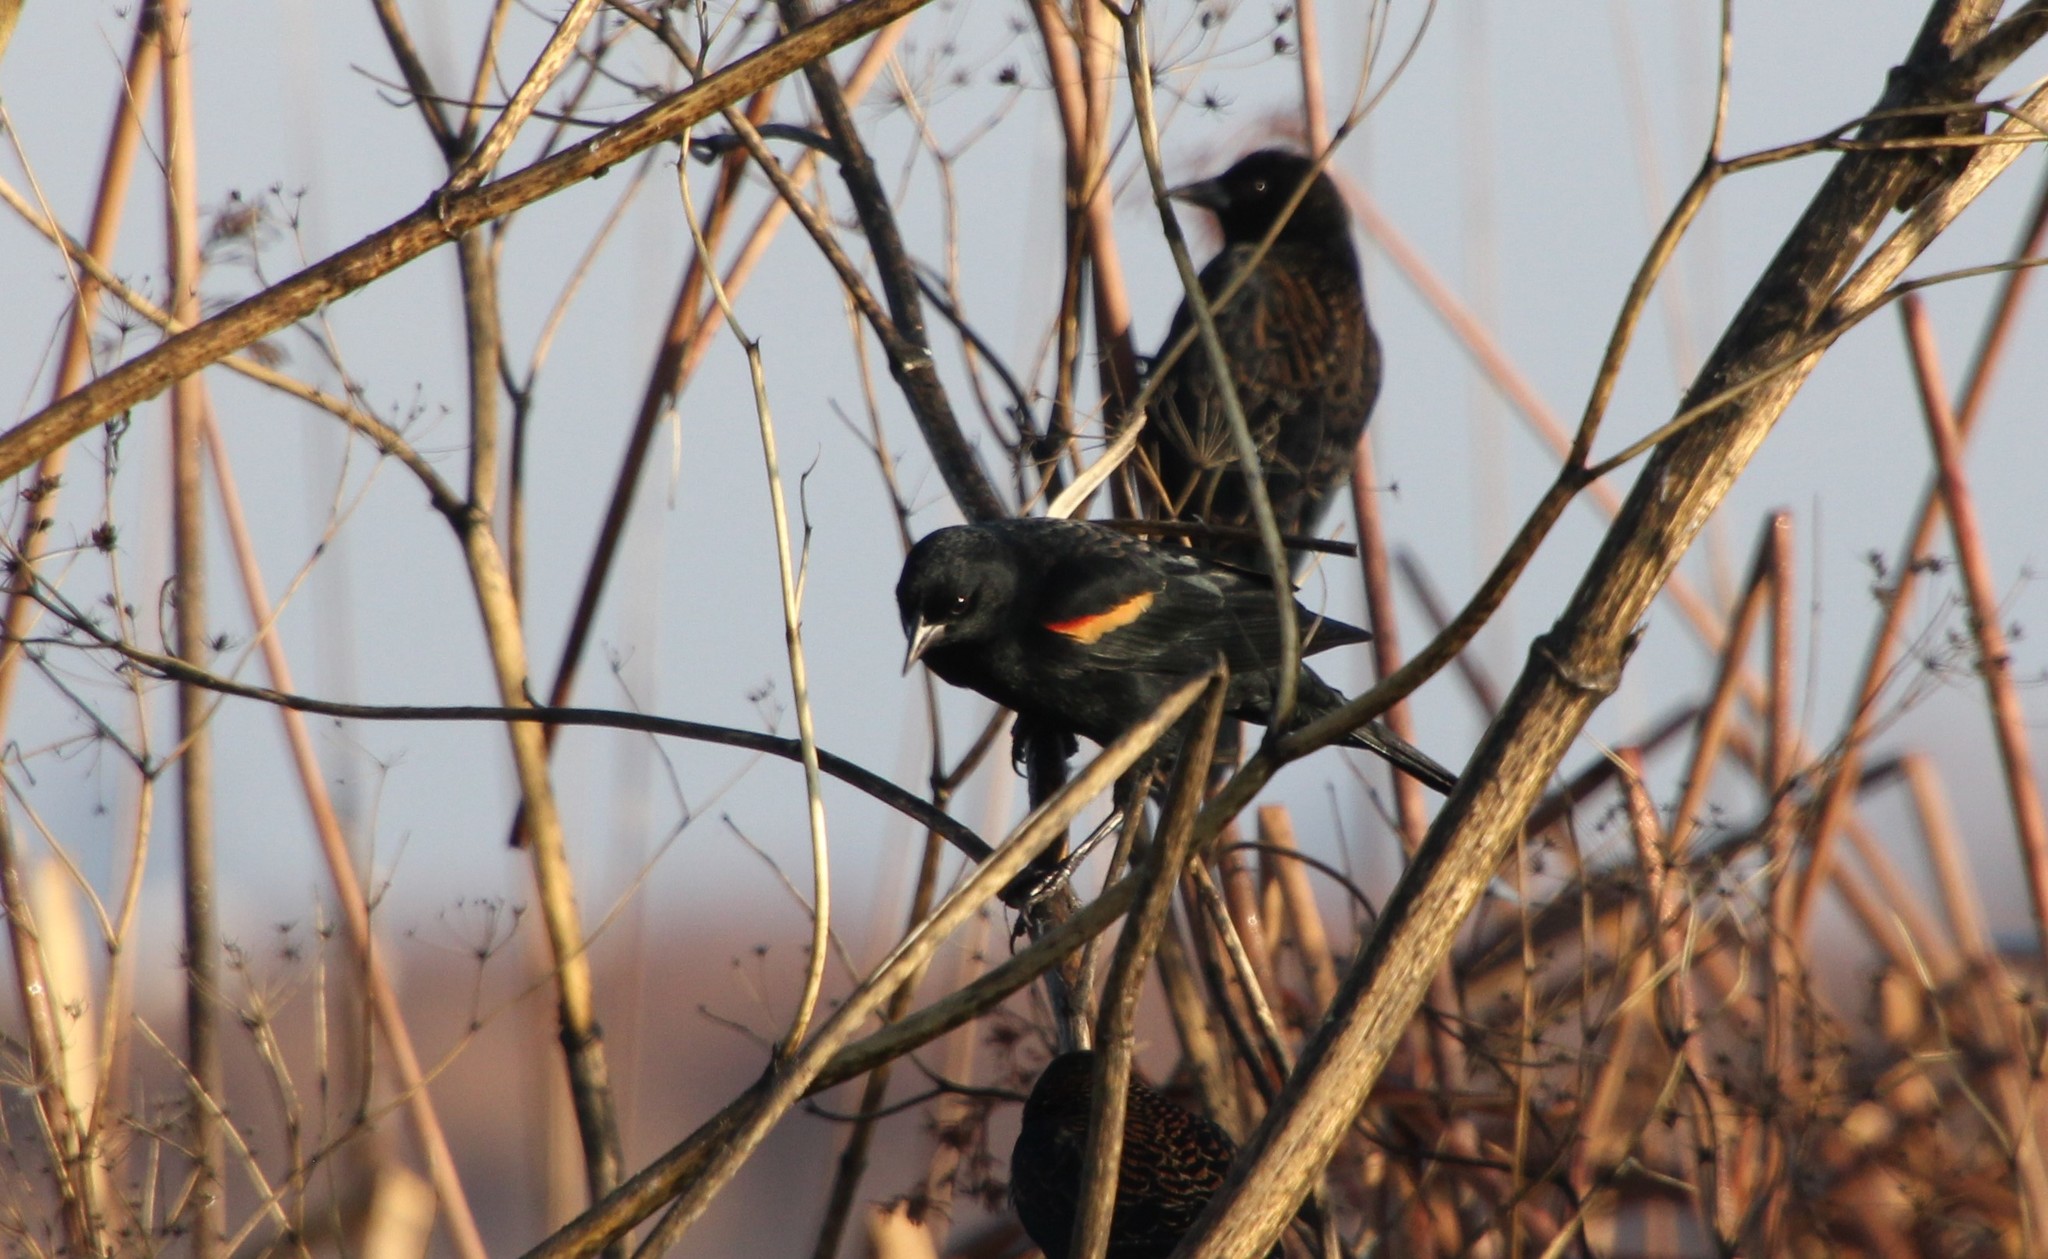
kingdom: Animalia
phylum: Chordata
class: Aves
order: Passeriformes
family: Icteridae
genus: Agelaius
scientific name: Agelaius phoeniceus
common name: Red-winged blackbird
